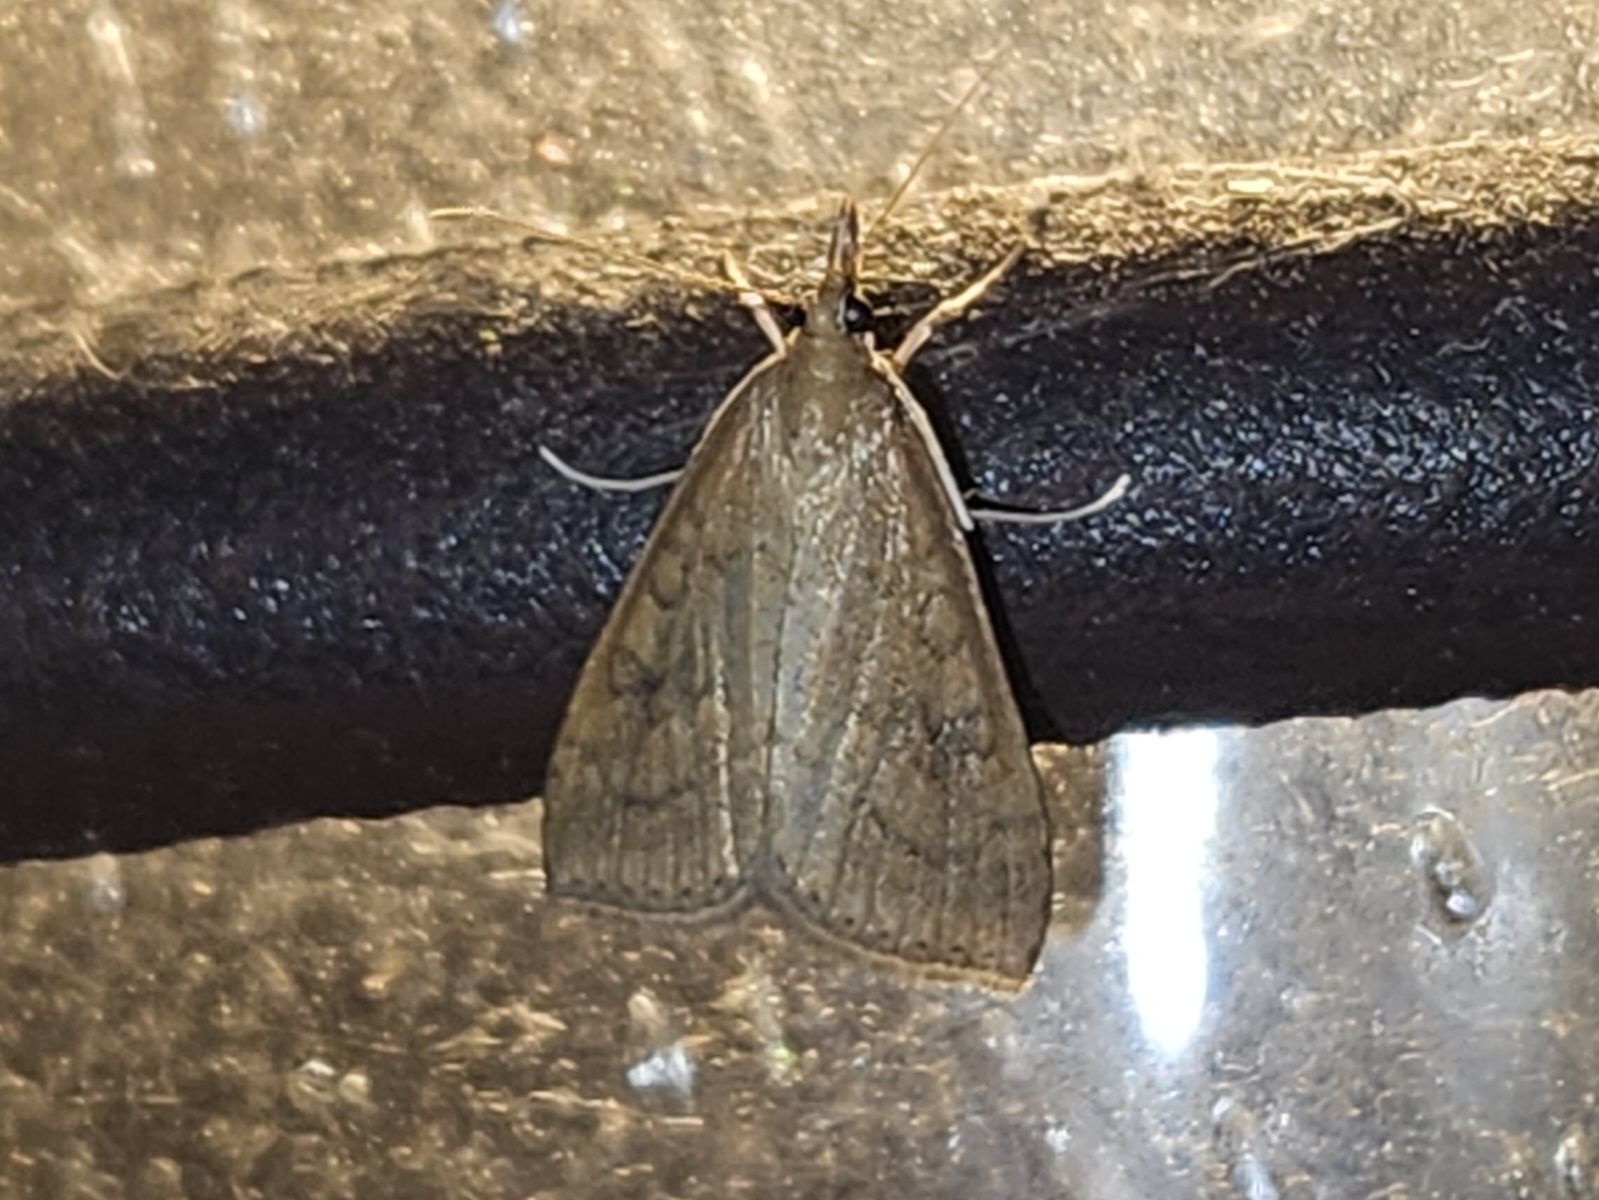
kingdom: Animalia
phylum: Arthropoda
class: Insecta
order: Lepidoptera
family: Crambidae
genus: Udea
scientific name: Udea rubigalis
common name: Celery leaftier moth
